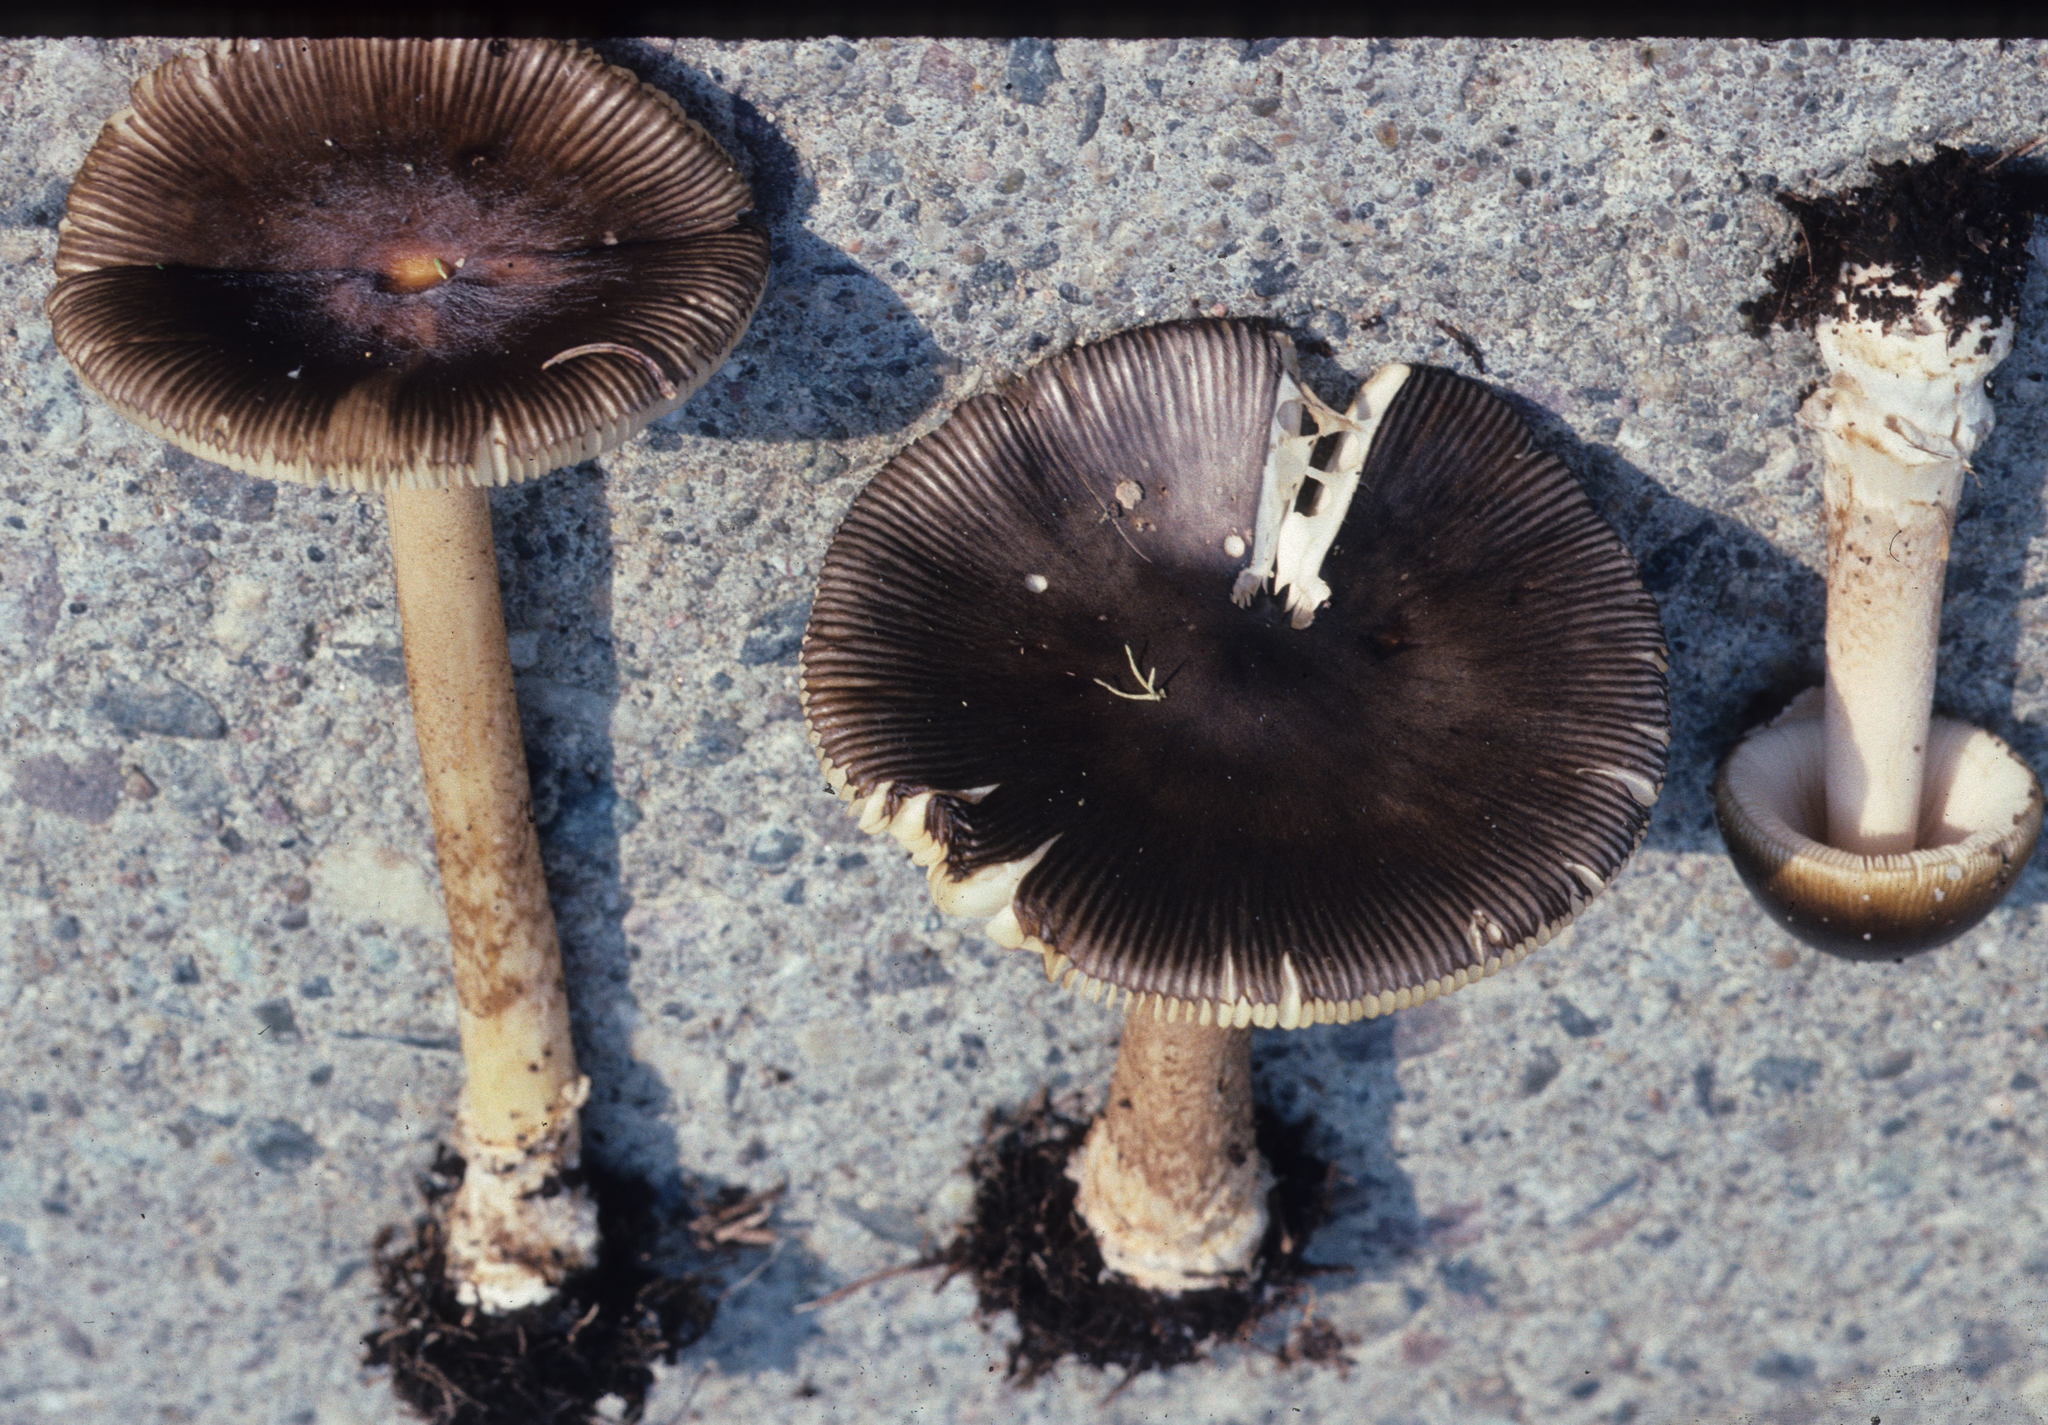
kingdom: Fungi
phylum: Basidiomycota
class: Agaricomycetes
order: Agaricales
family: Amanitaceae
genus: Amanita
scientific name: Amanita variicolor
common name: Piebald ringless amanita
